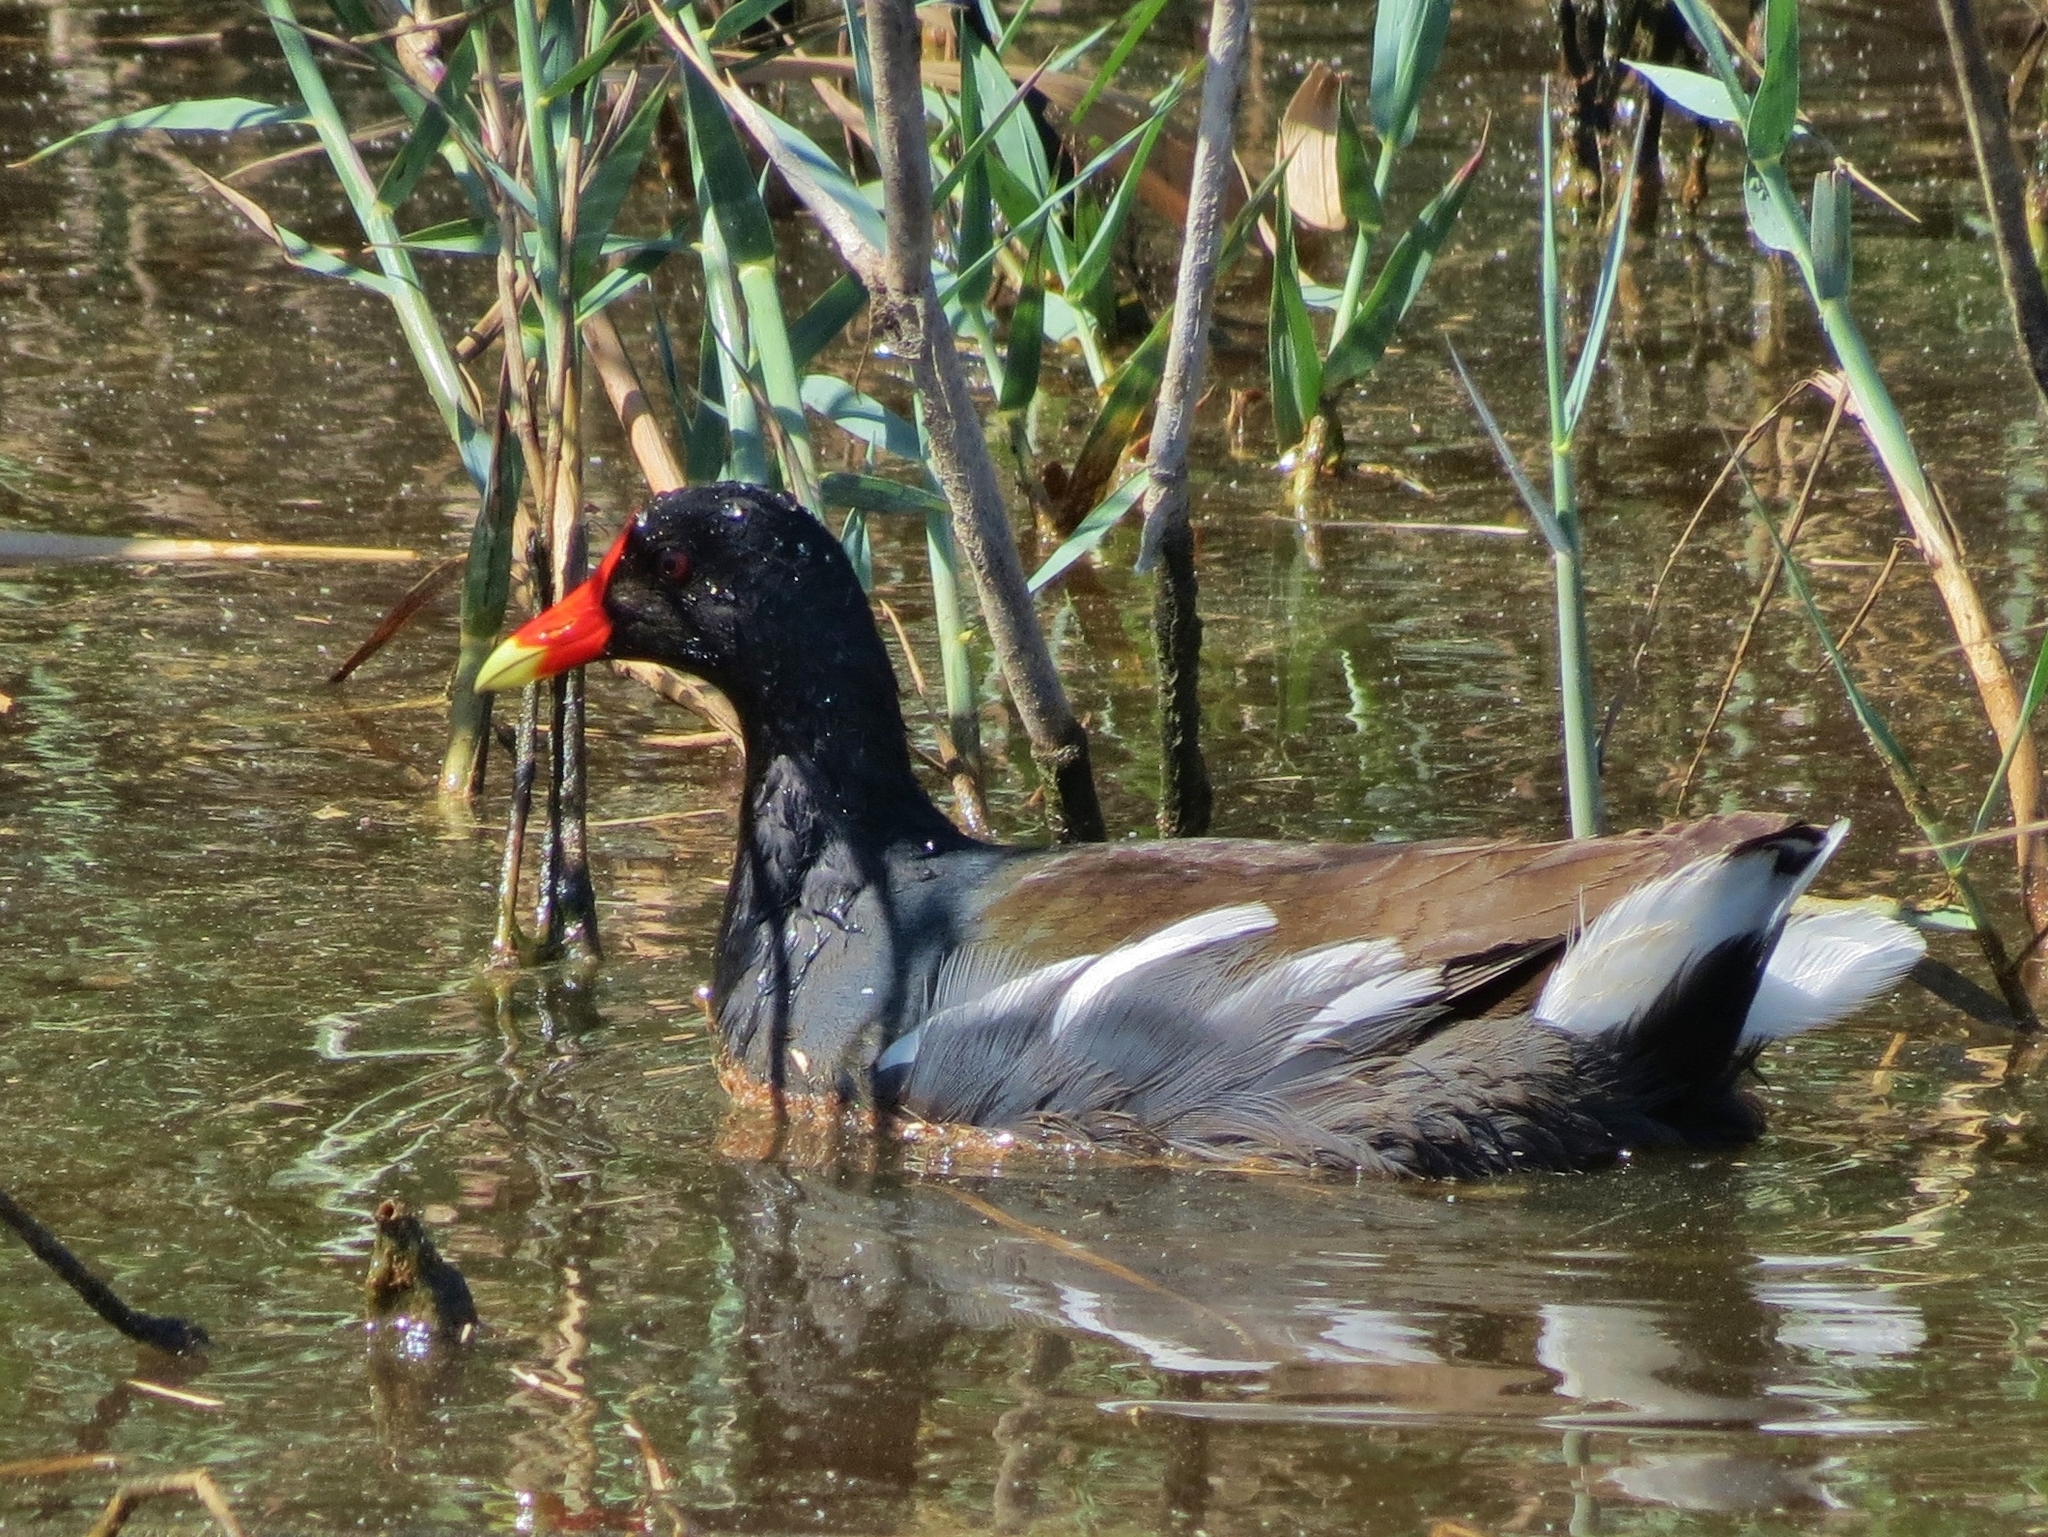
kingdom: Animalia
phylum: Chordata
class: Aves
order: Gruiformes
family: Rallidae
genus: Gallinula
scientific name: Gallinula chloropus
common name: Common moorhen
